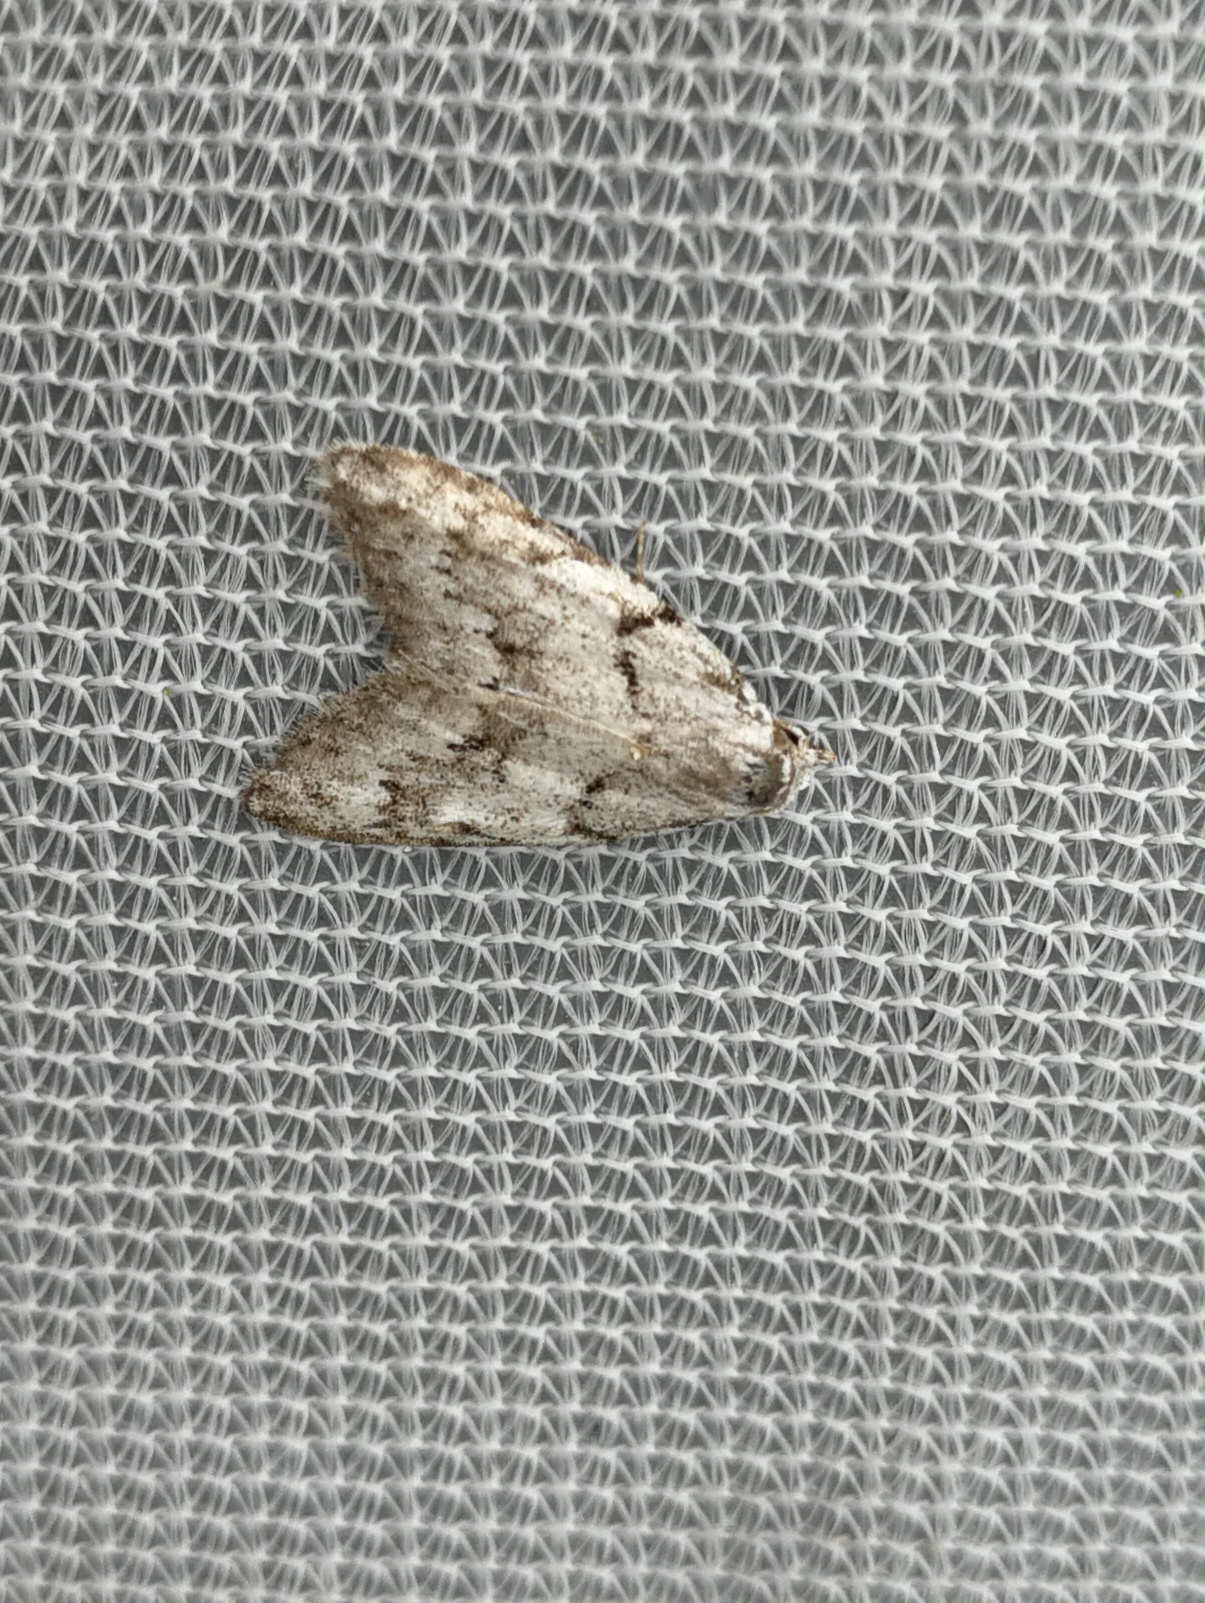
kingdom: Animalia
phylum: Arthropoda
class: Insecta
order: Lepidoptera
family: Nolidae
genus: Nola
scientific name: Nola cicatricalis
